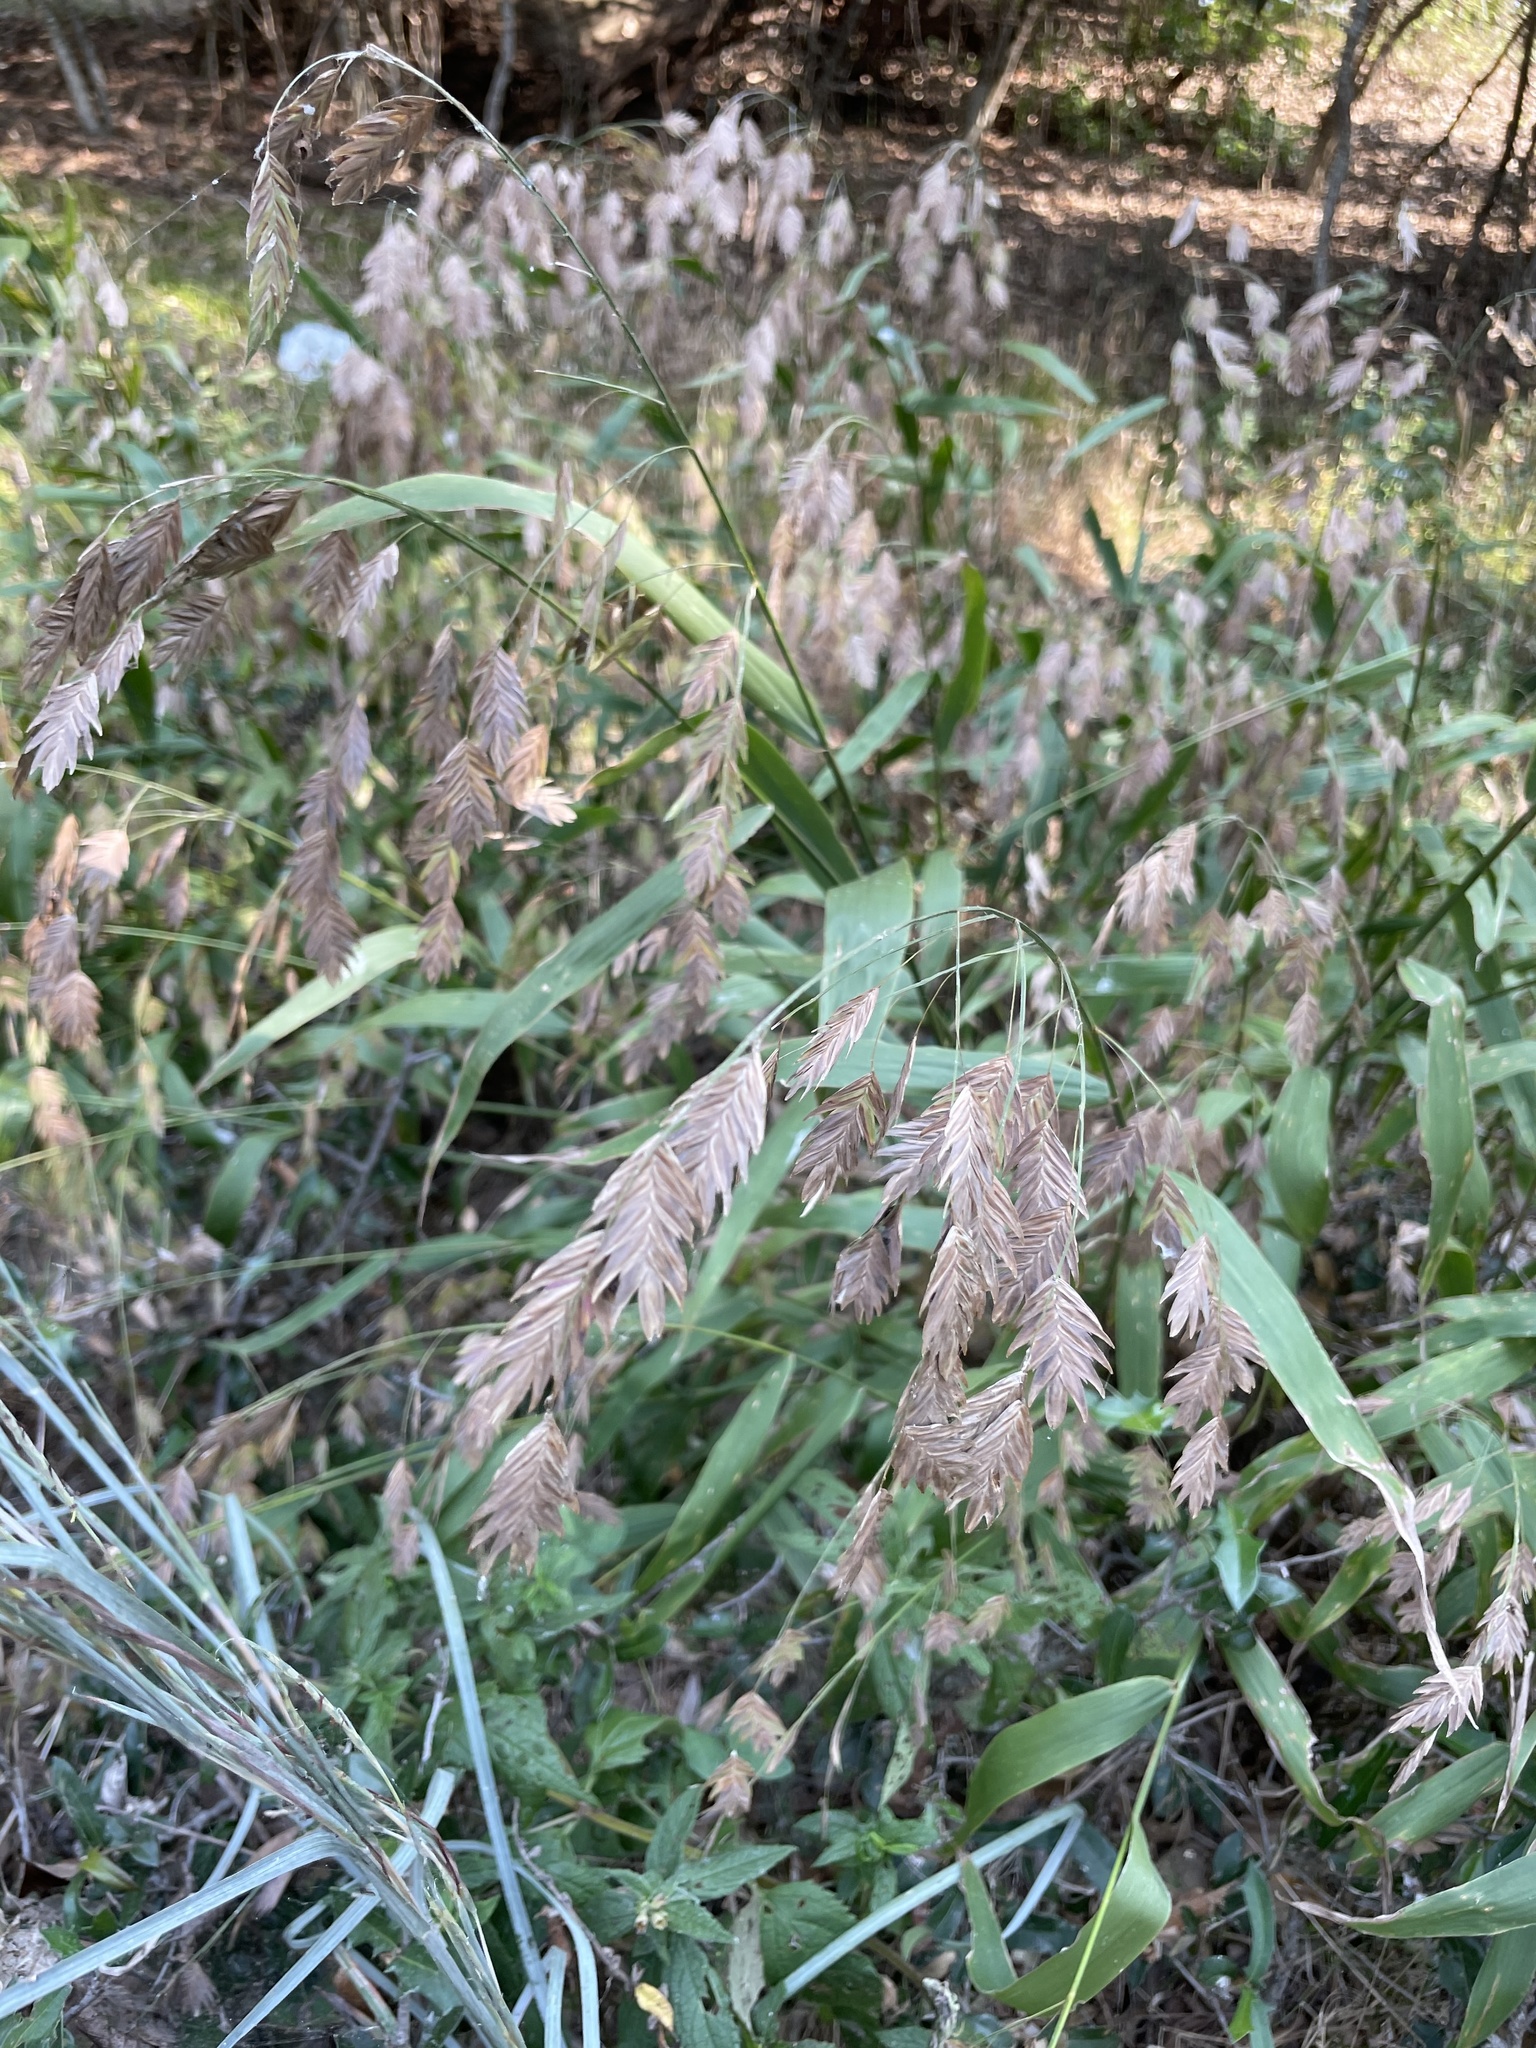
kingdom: Plantae
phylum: Tracheophyta
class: Liliopsida
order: Poales
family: Poaceae
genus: Chasmanthium
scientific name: Chasmanthium latifolium
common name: Broad-leaved chasmanthium
